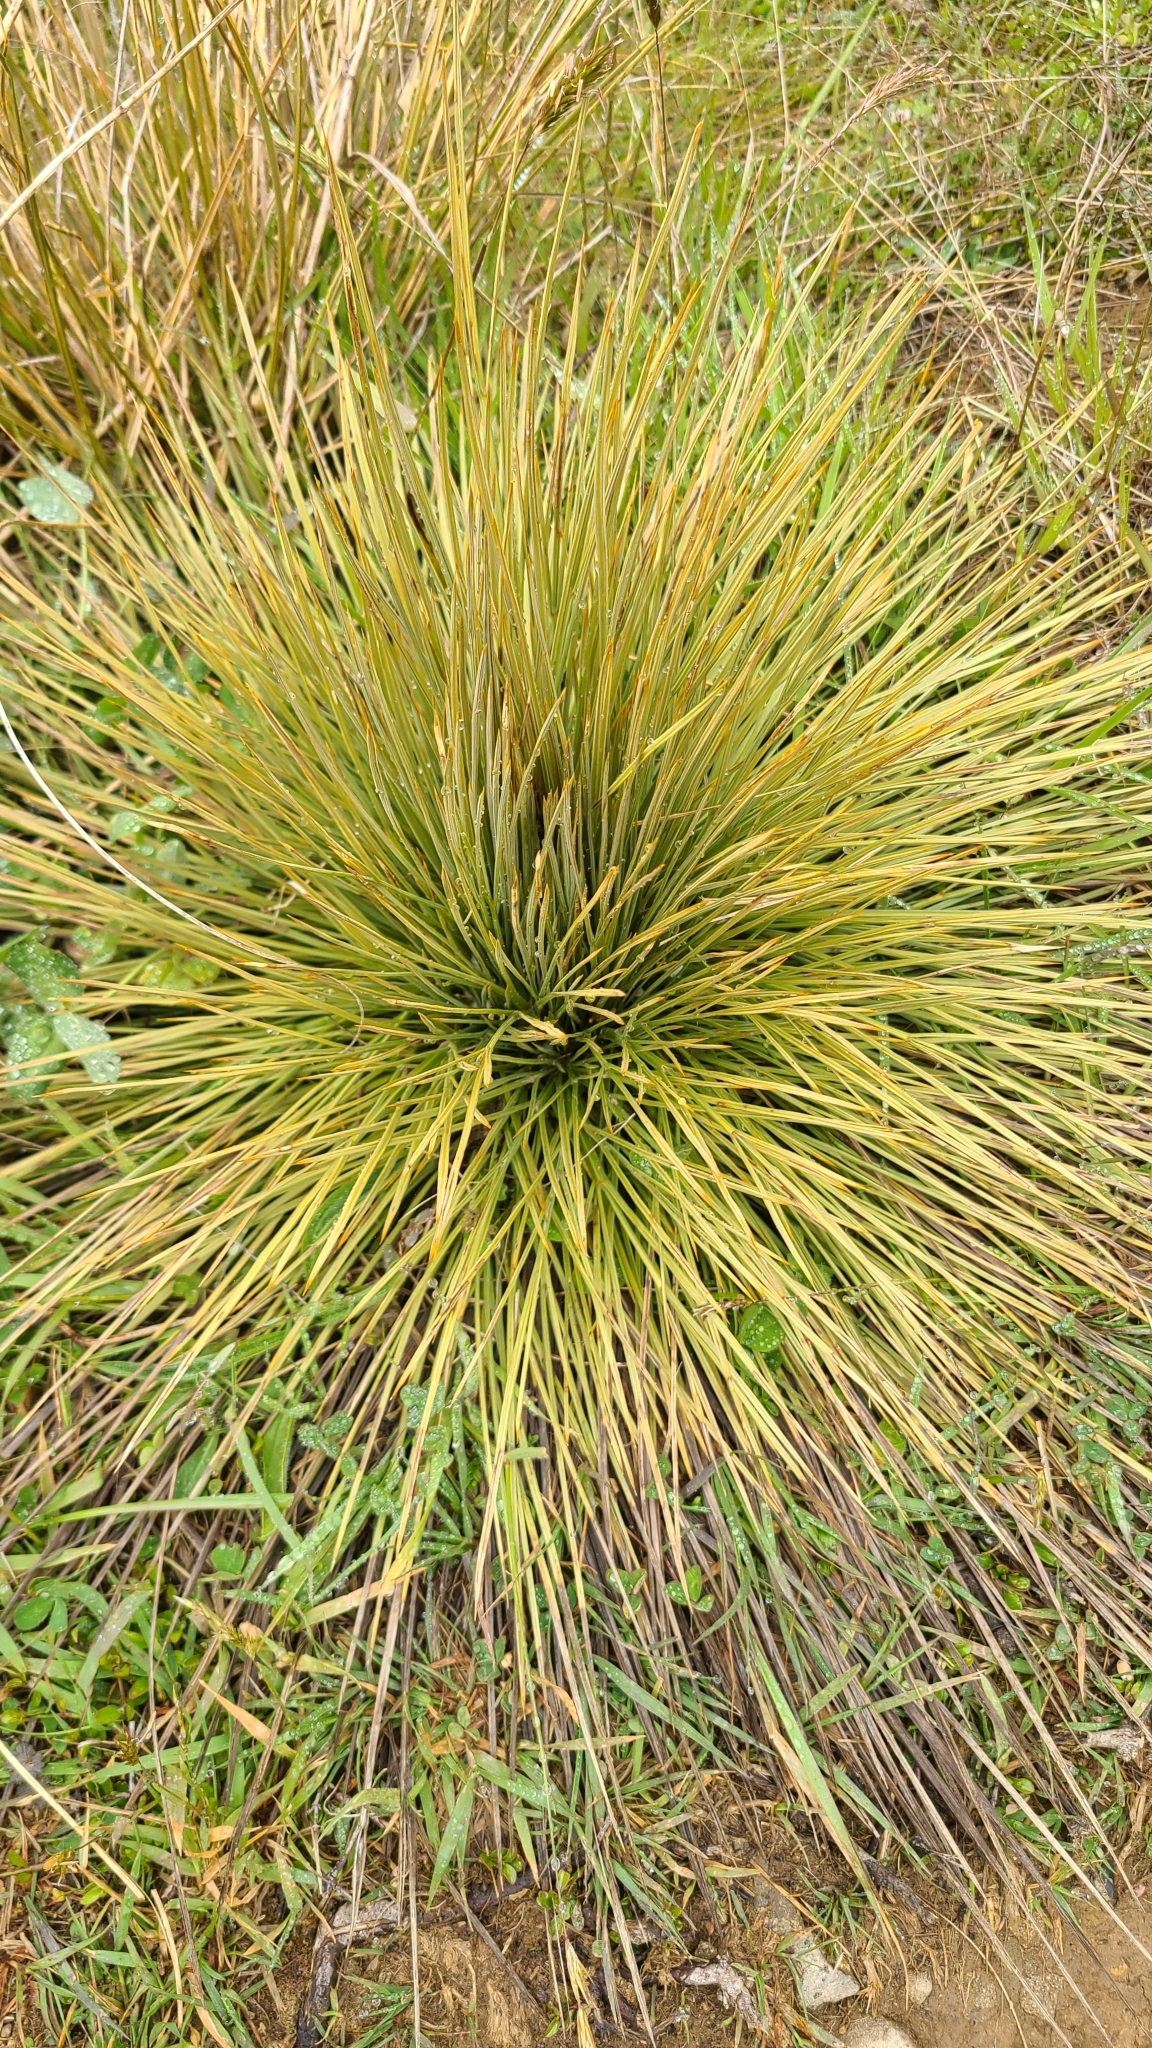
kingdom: Plantae
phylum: Tracheophyta
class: Magnoliopsida
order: Apiales
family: Apiaceae
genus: Aciphylla
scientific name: Aciphylla subflabellata
